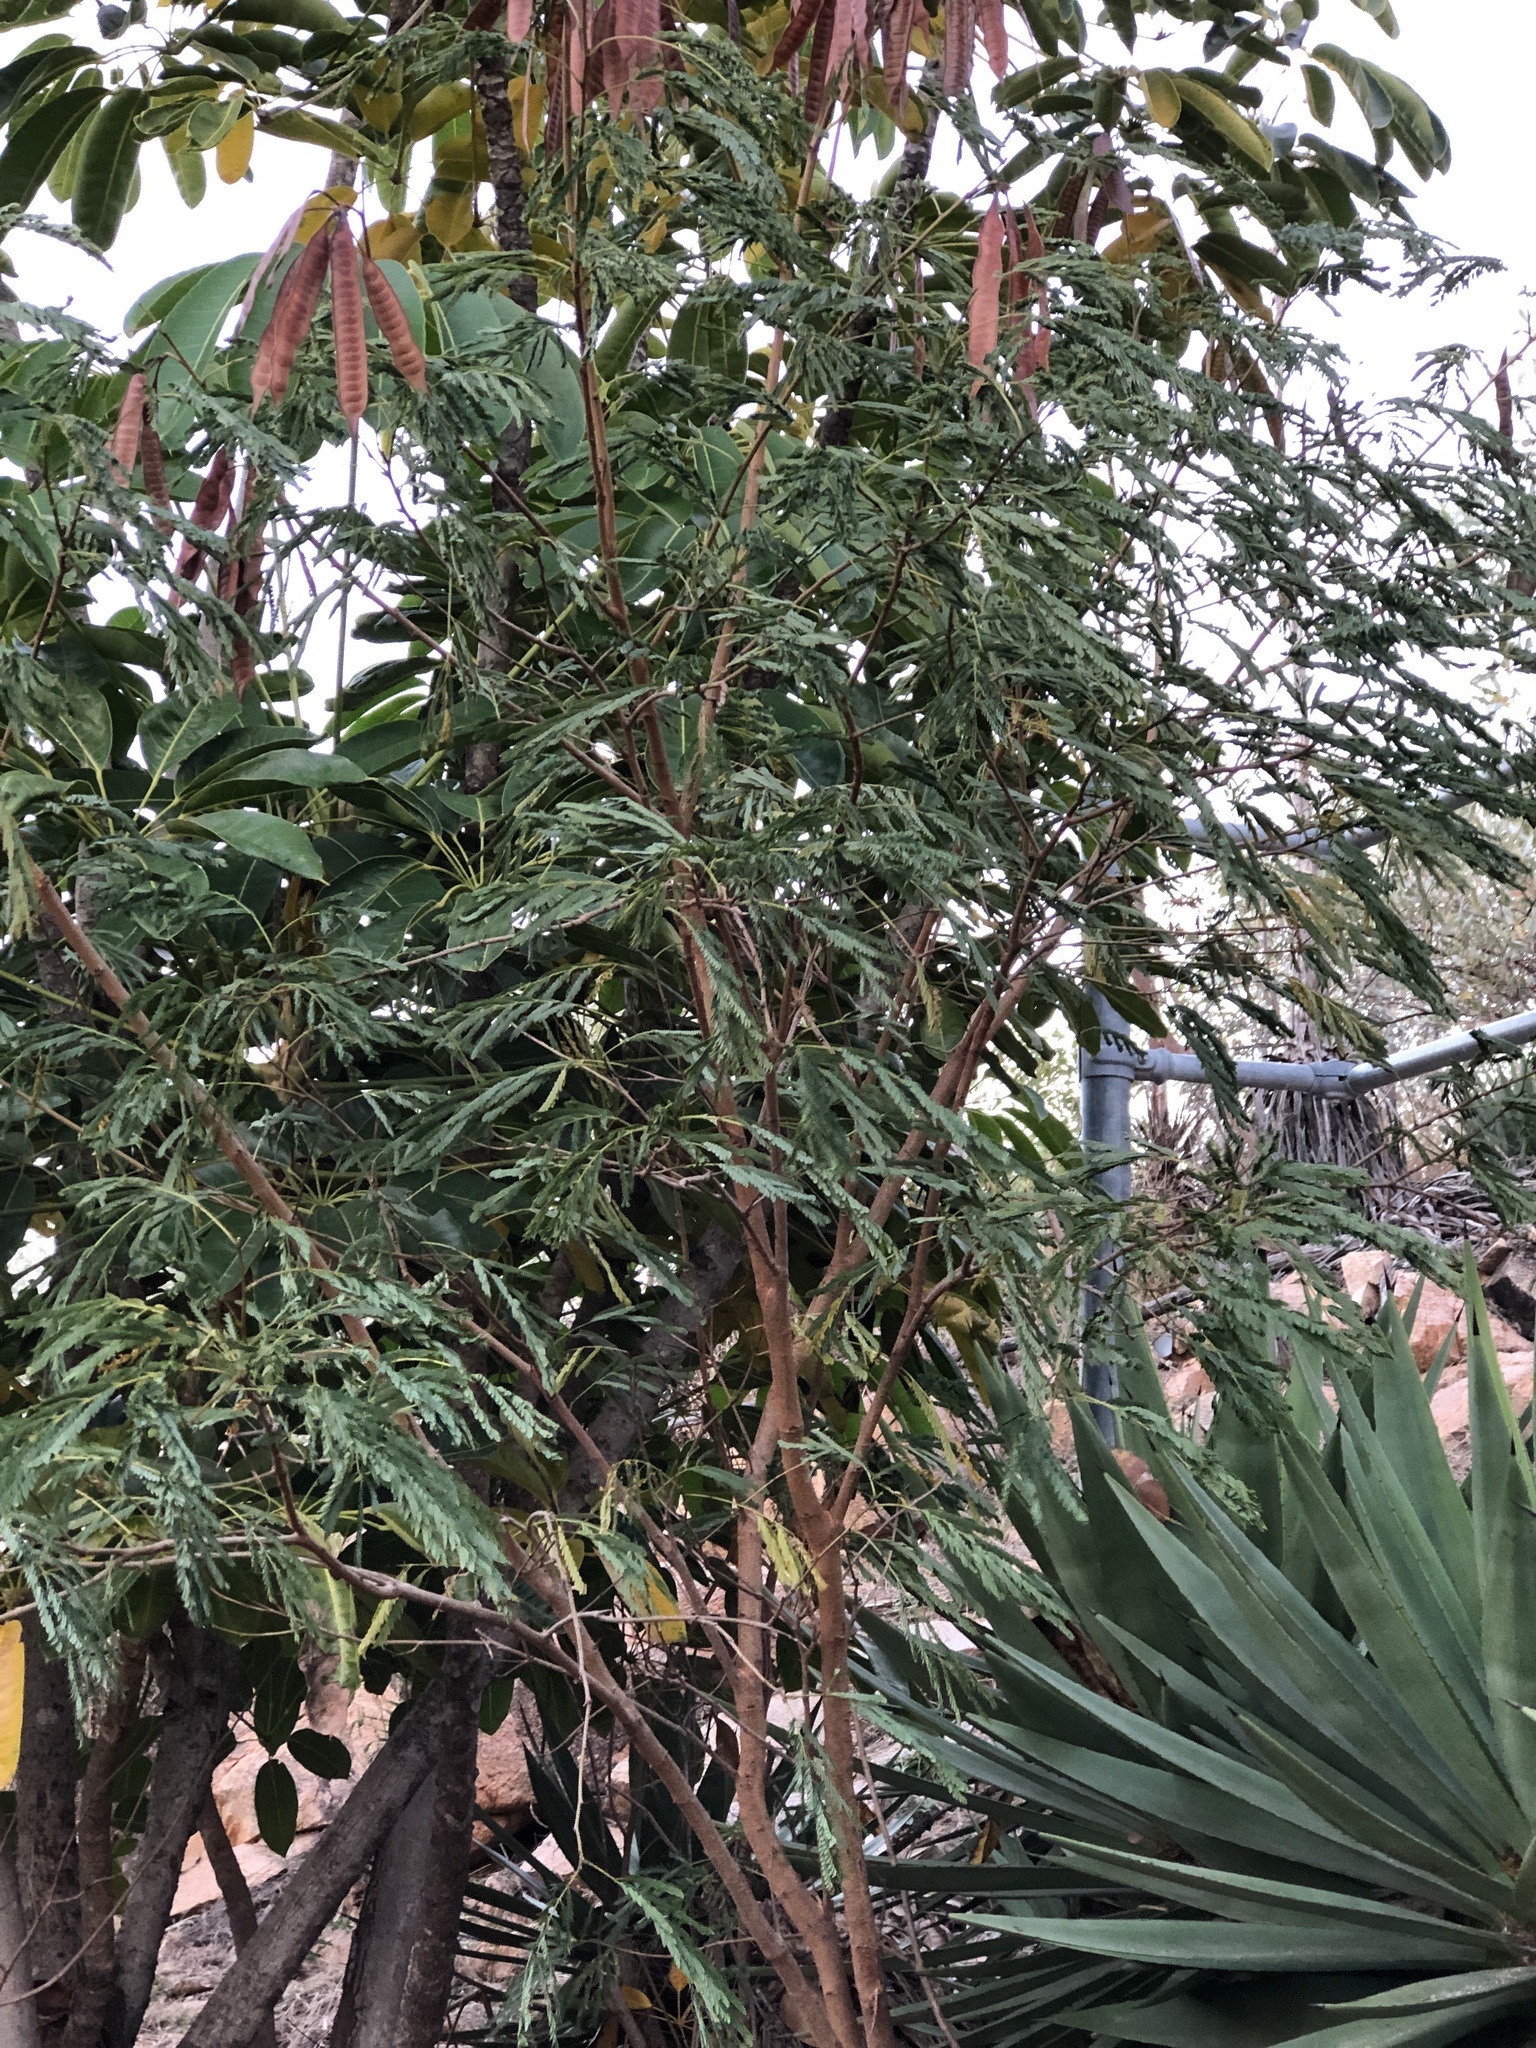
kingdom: Plantae
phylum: Tracheophyta
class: Magnoliopsida
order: Fabales
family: Fabaceae
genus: Leucaena
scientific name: Leucaena leucocephala
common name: White leadtree
